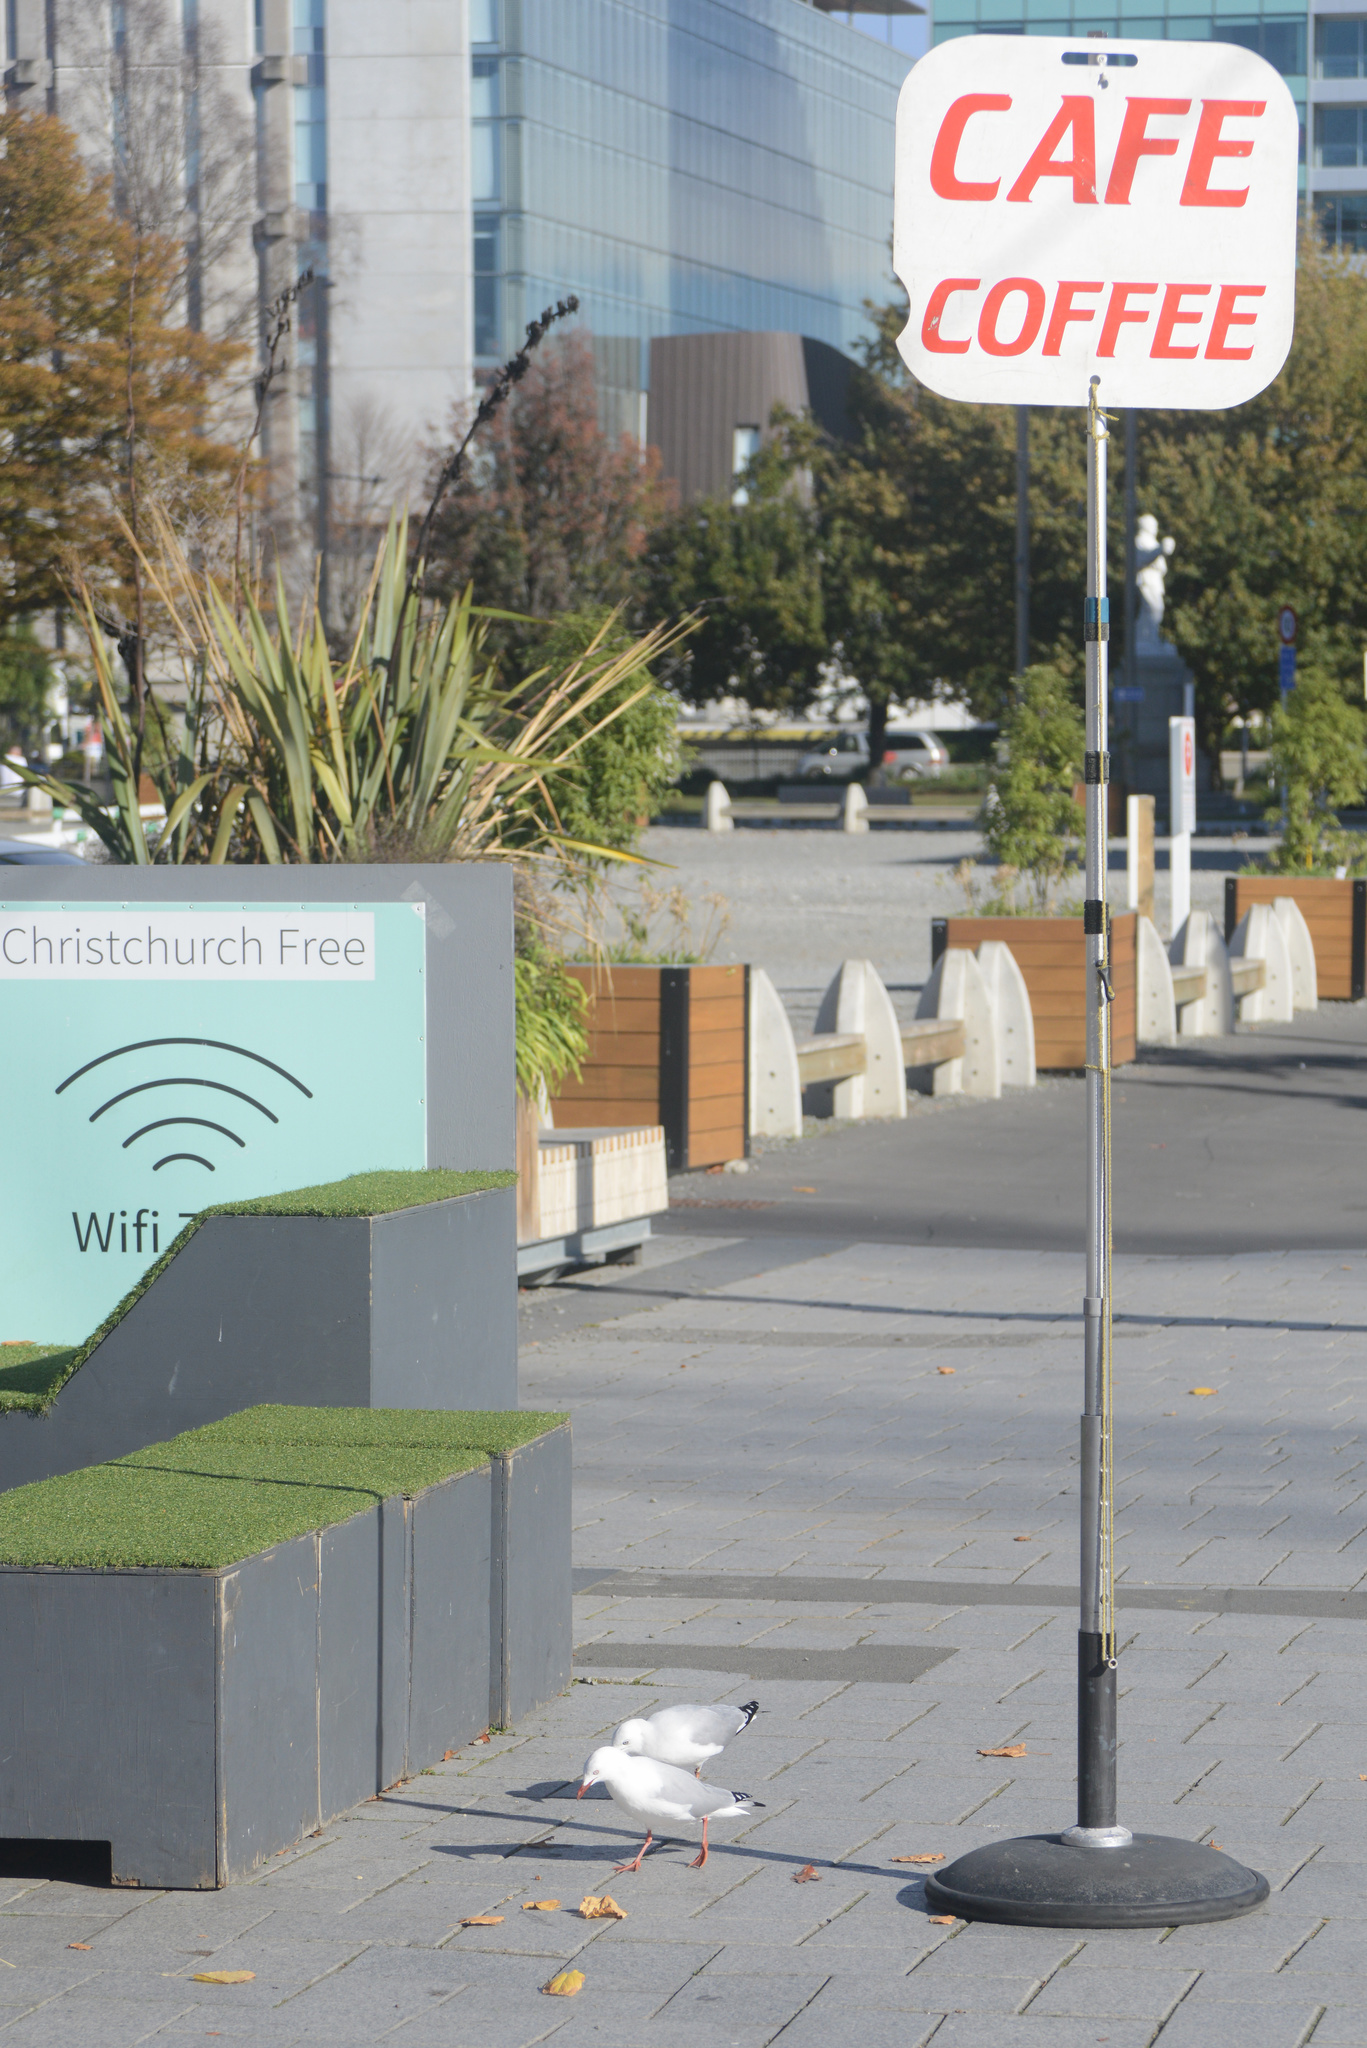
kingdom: Animalia
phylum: Chordata
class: Aves
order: Charadriiformes
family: Laridae
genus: Chroicocephalus
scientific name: Chroicocephalus novaehollandiae
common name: Silver gull
